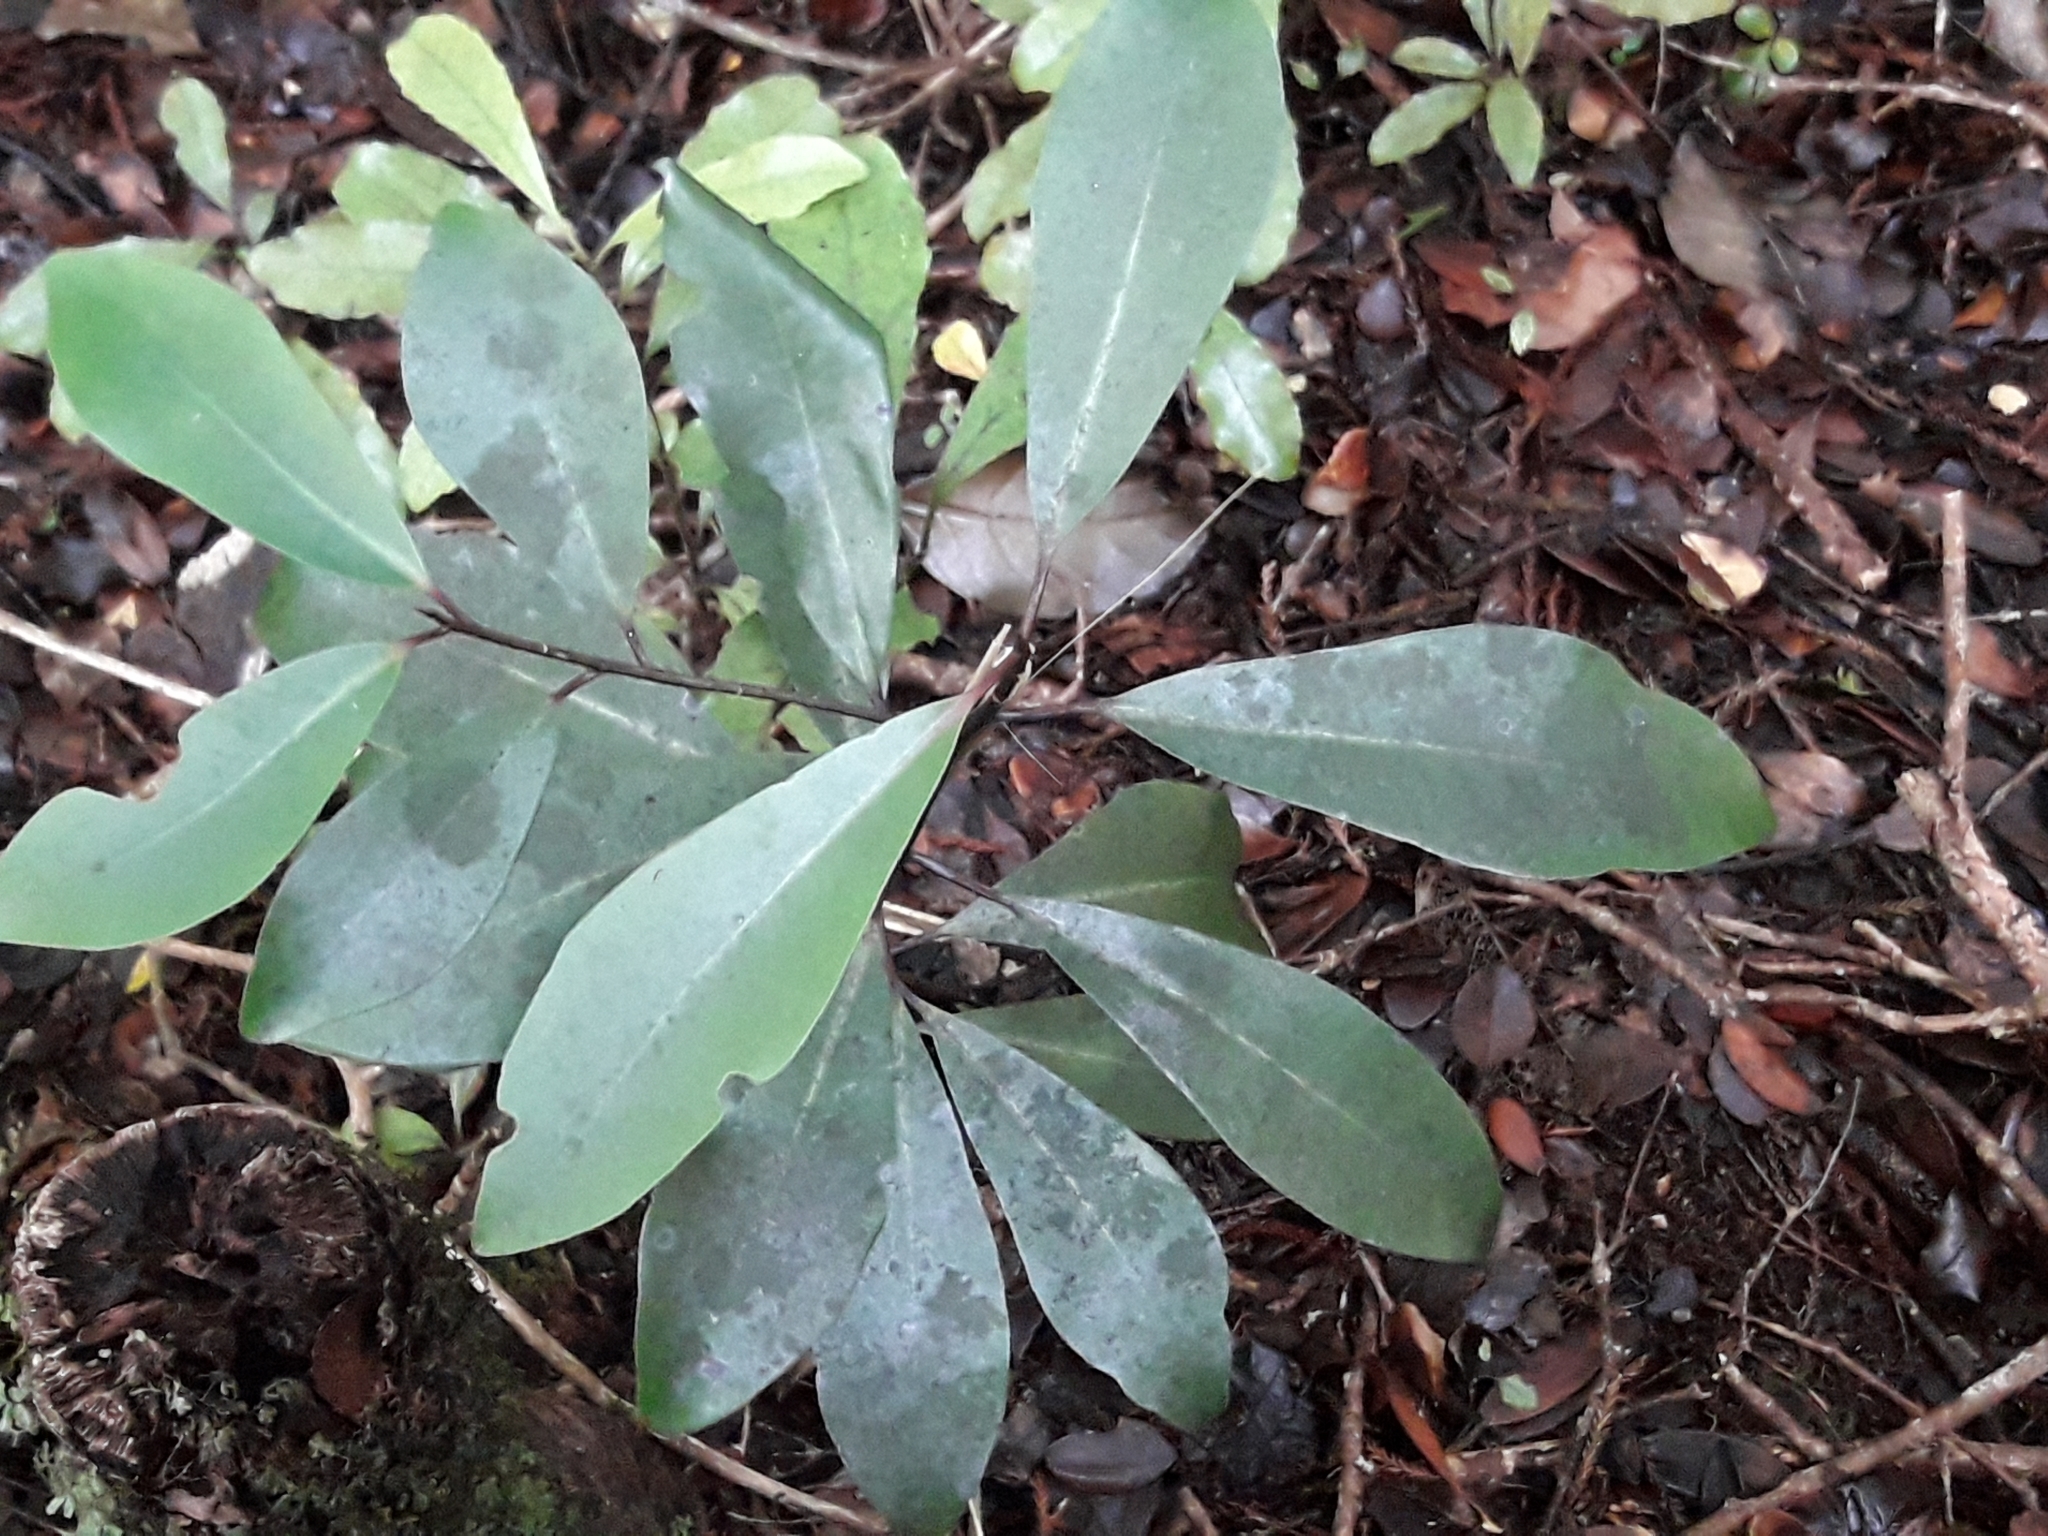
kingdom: Plantae
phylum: Tracheophyta
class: Magnoliopsida
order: Canellales
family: Winteraceae
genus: Pseudowintera
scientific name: Pseudowintera axillaris
